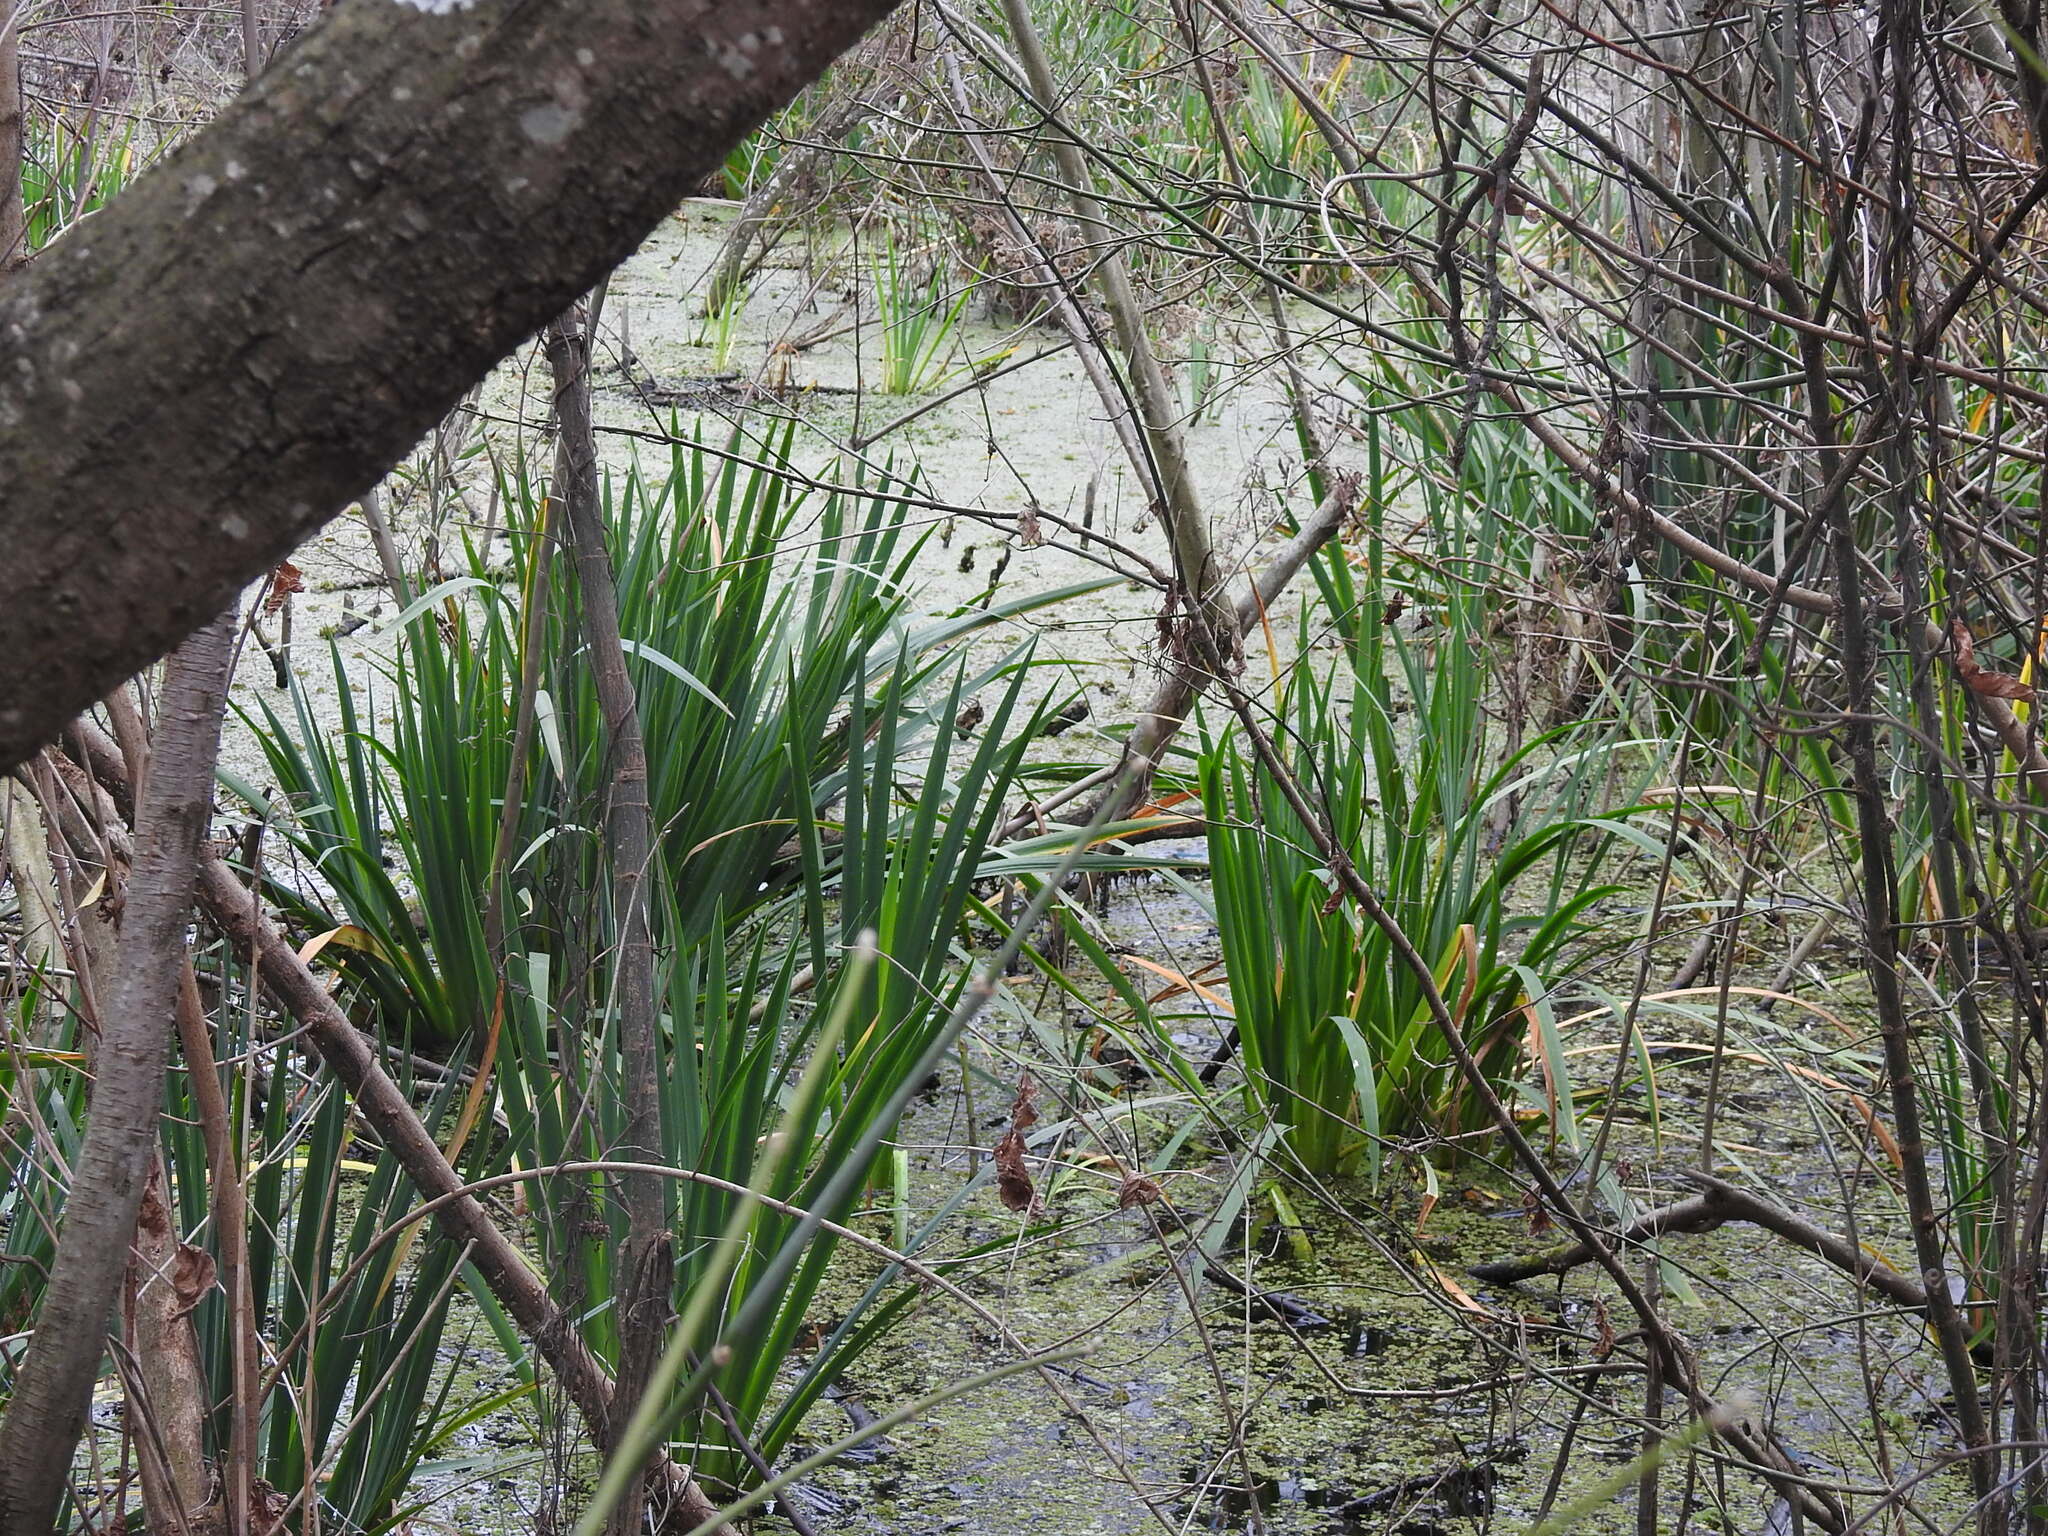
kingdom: Plantae
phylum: Tracheophyta
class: Liliopsida
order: Asparagales
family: Iridaceae
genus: Iris
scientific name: Iris pseudacorus
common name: Yellow flag
